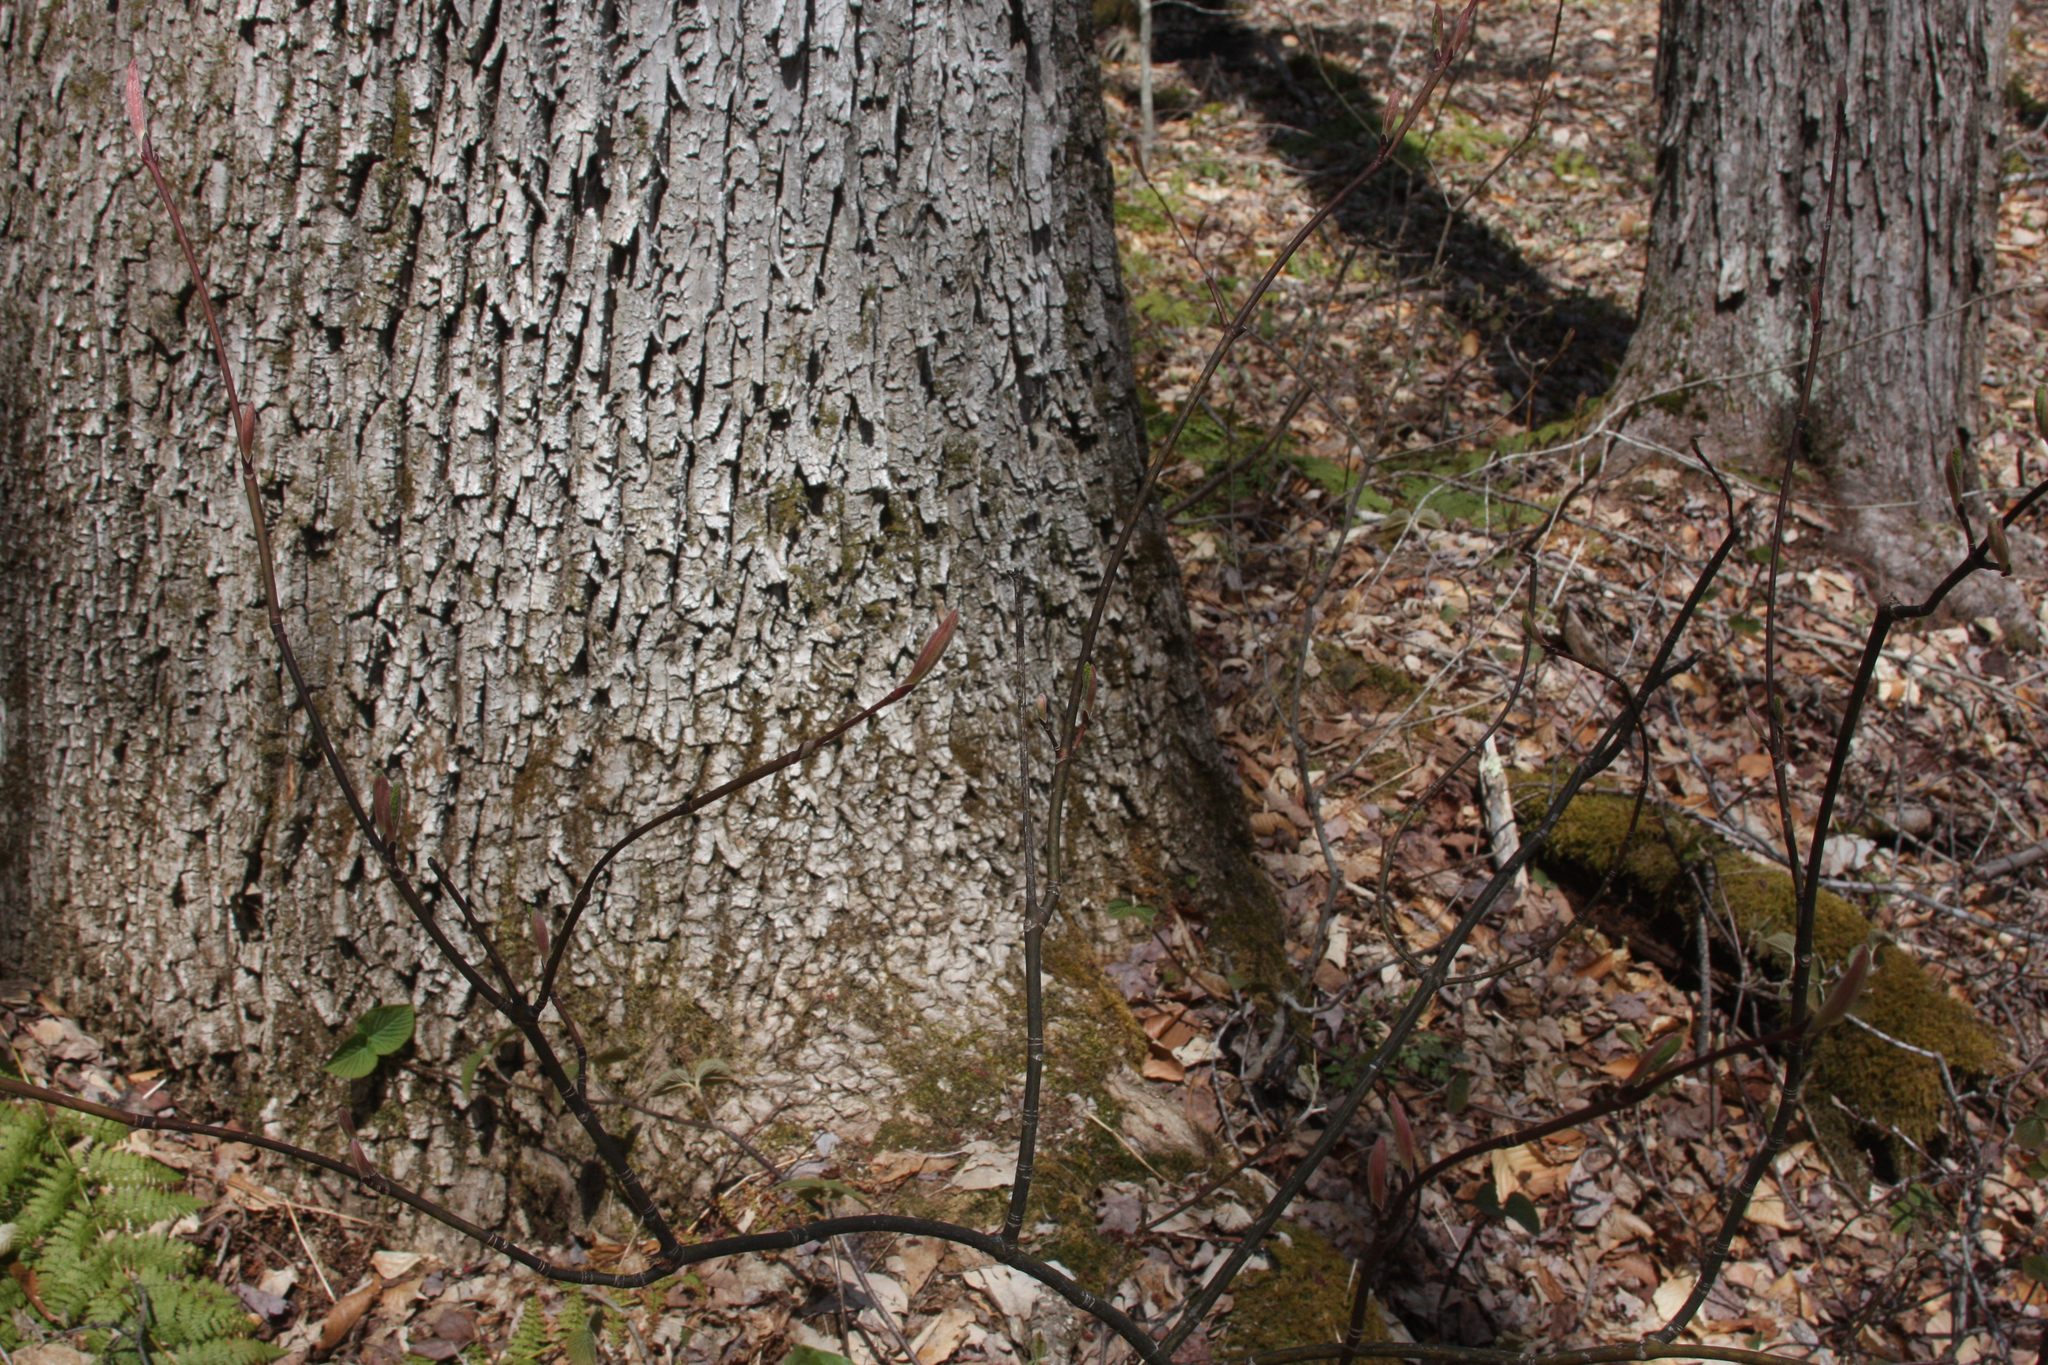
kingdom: Plantae
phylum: Tracheophyta
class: Magnoliopsida
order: Sapindales
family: Sapindaceae
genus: Acer
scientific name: Acer pensylvanicum
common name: Moosewood
